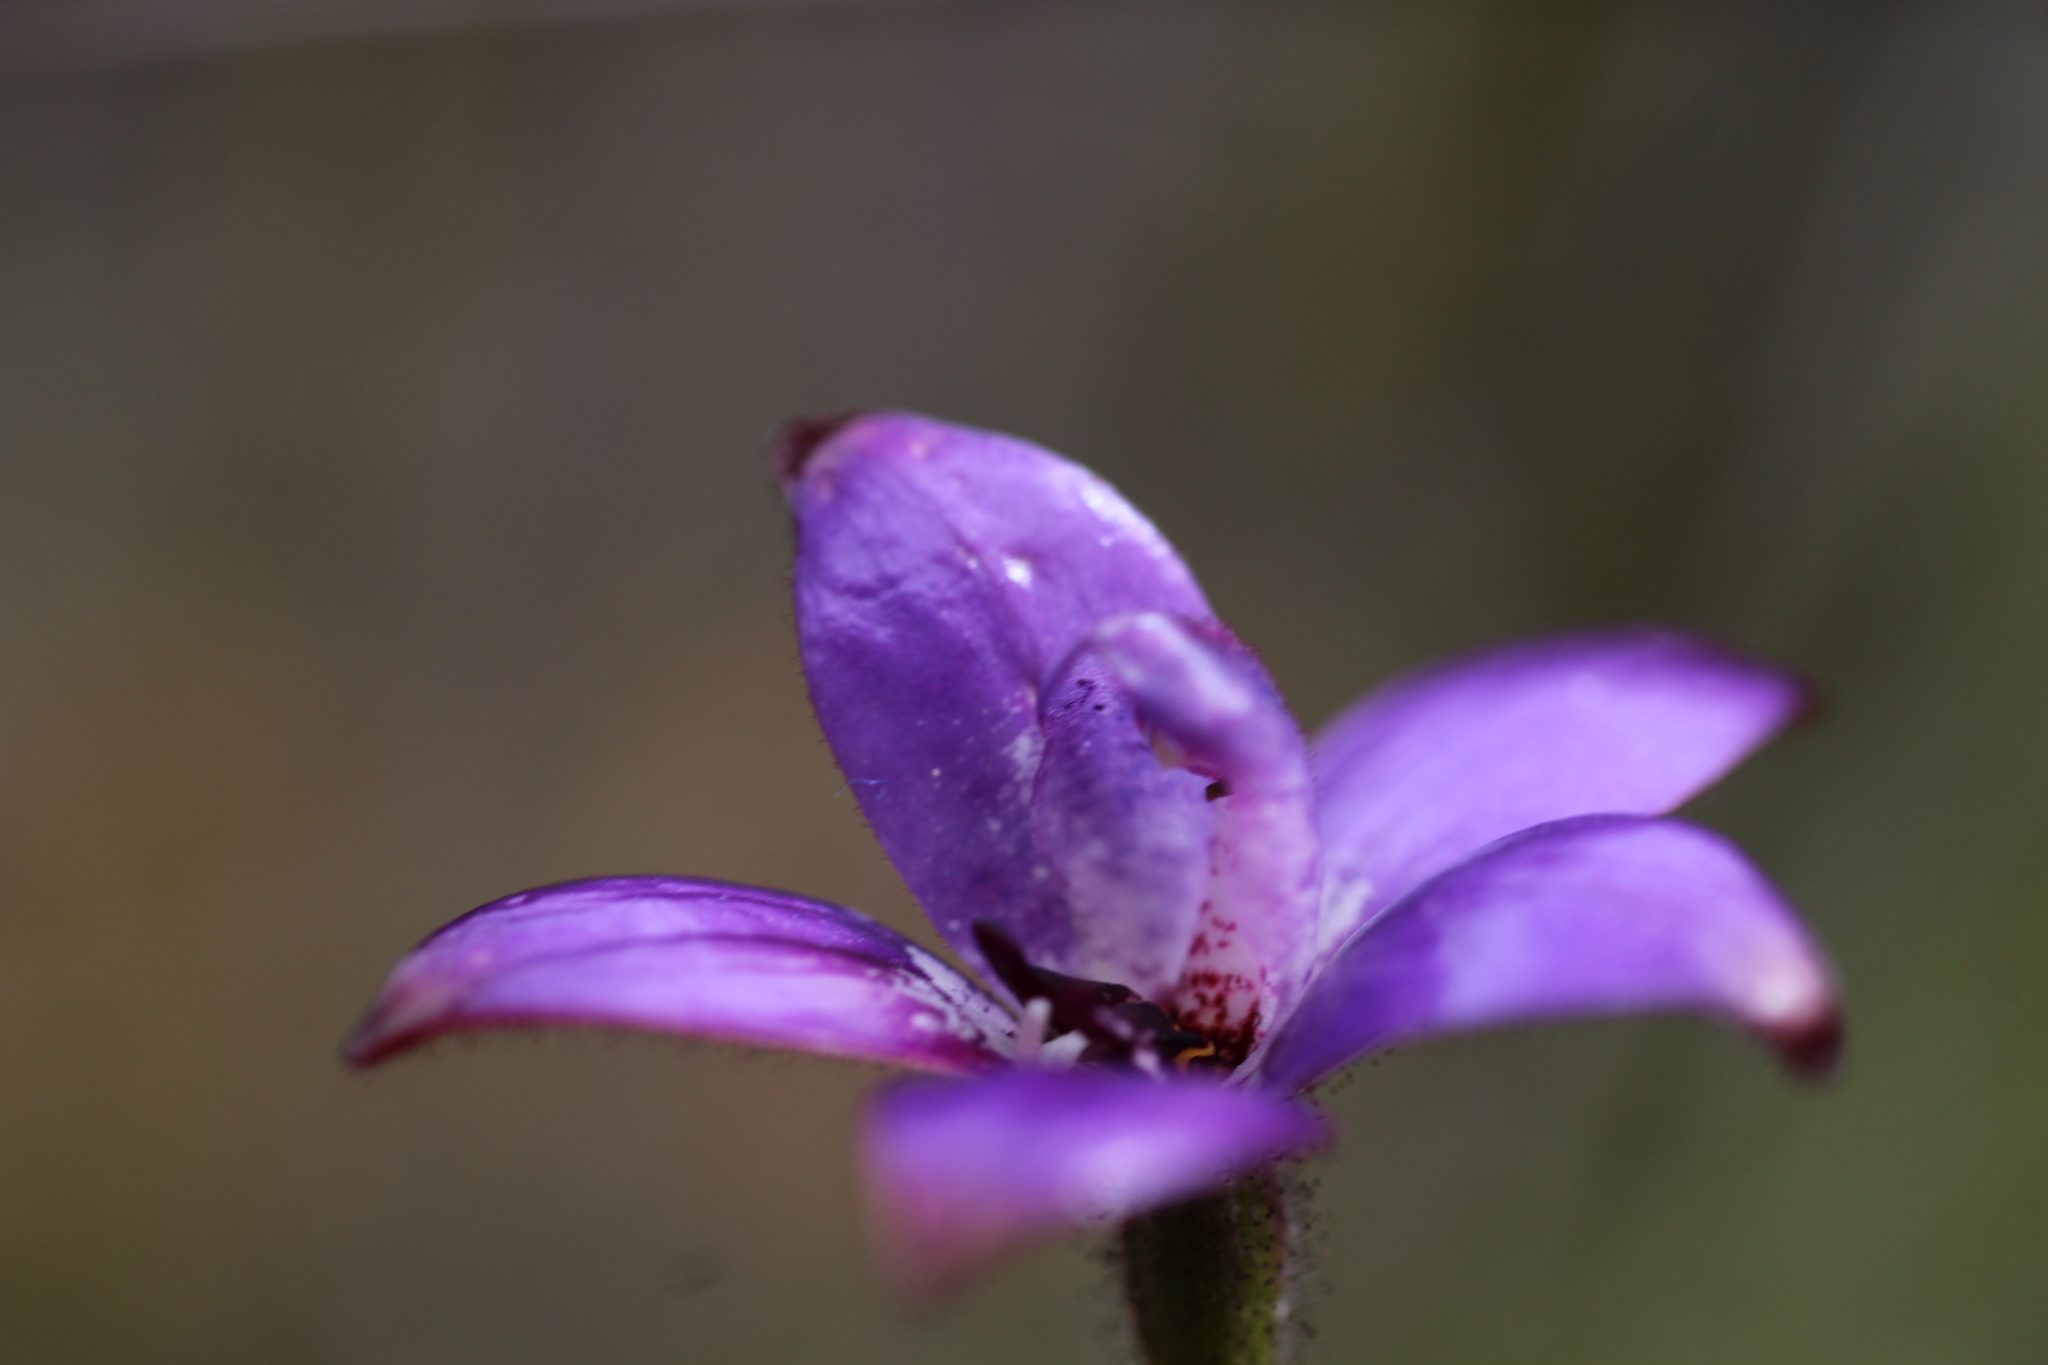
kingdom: Plantae
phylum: Tracheophyta
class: Liliopsida
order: Asparagales
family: Orchidaceae
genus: Caladenia
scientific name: Caladenia brunonis
